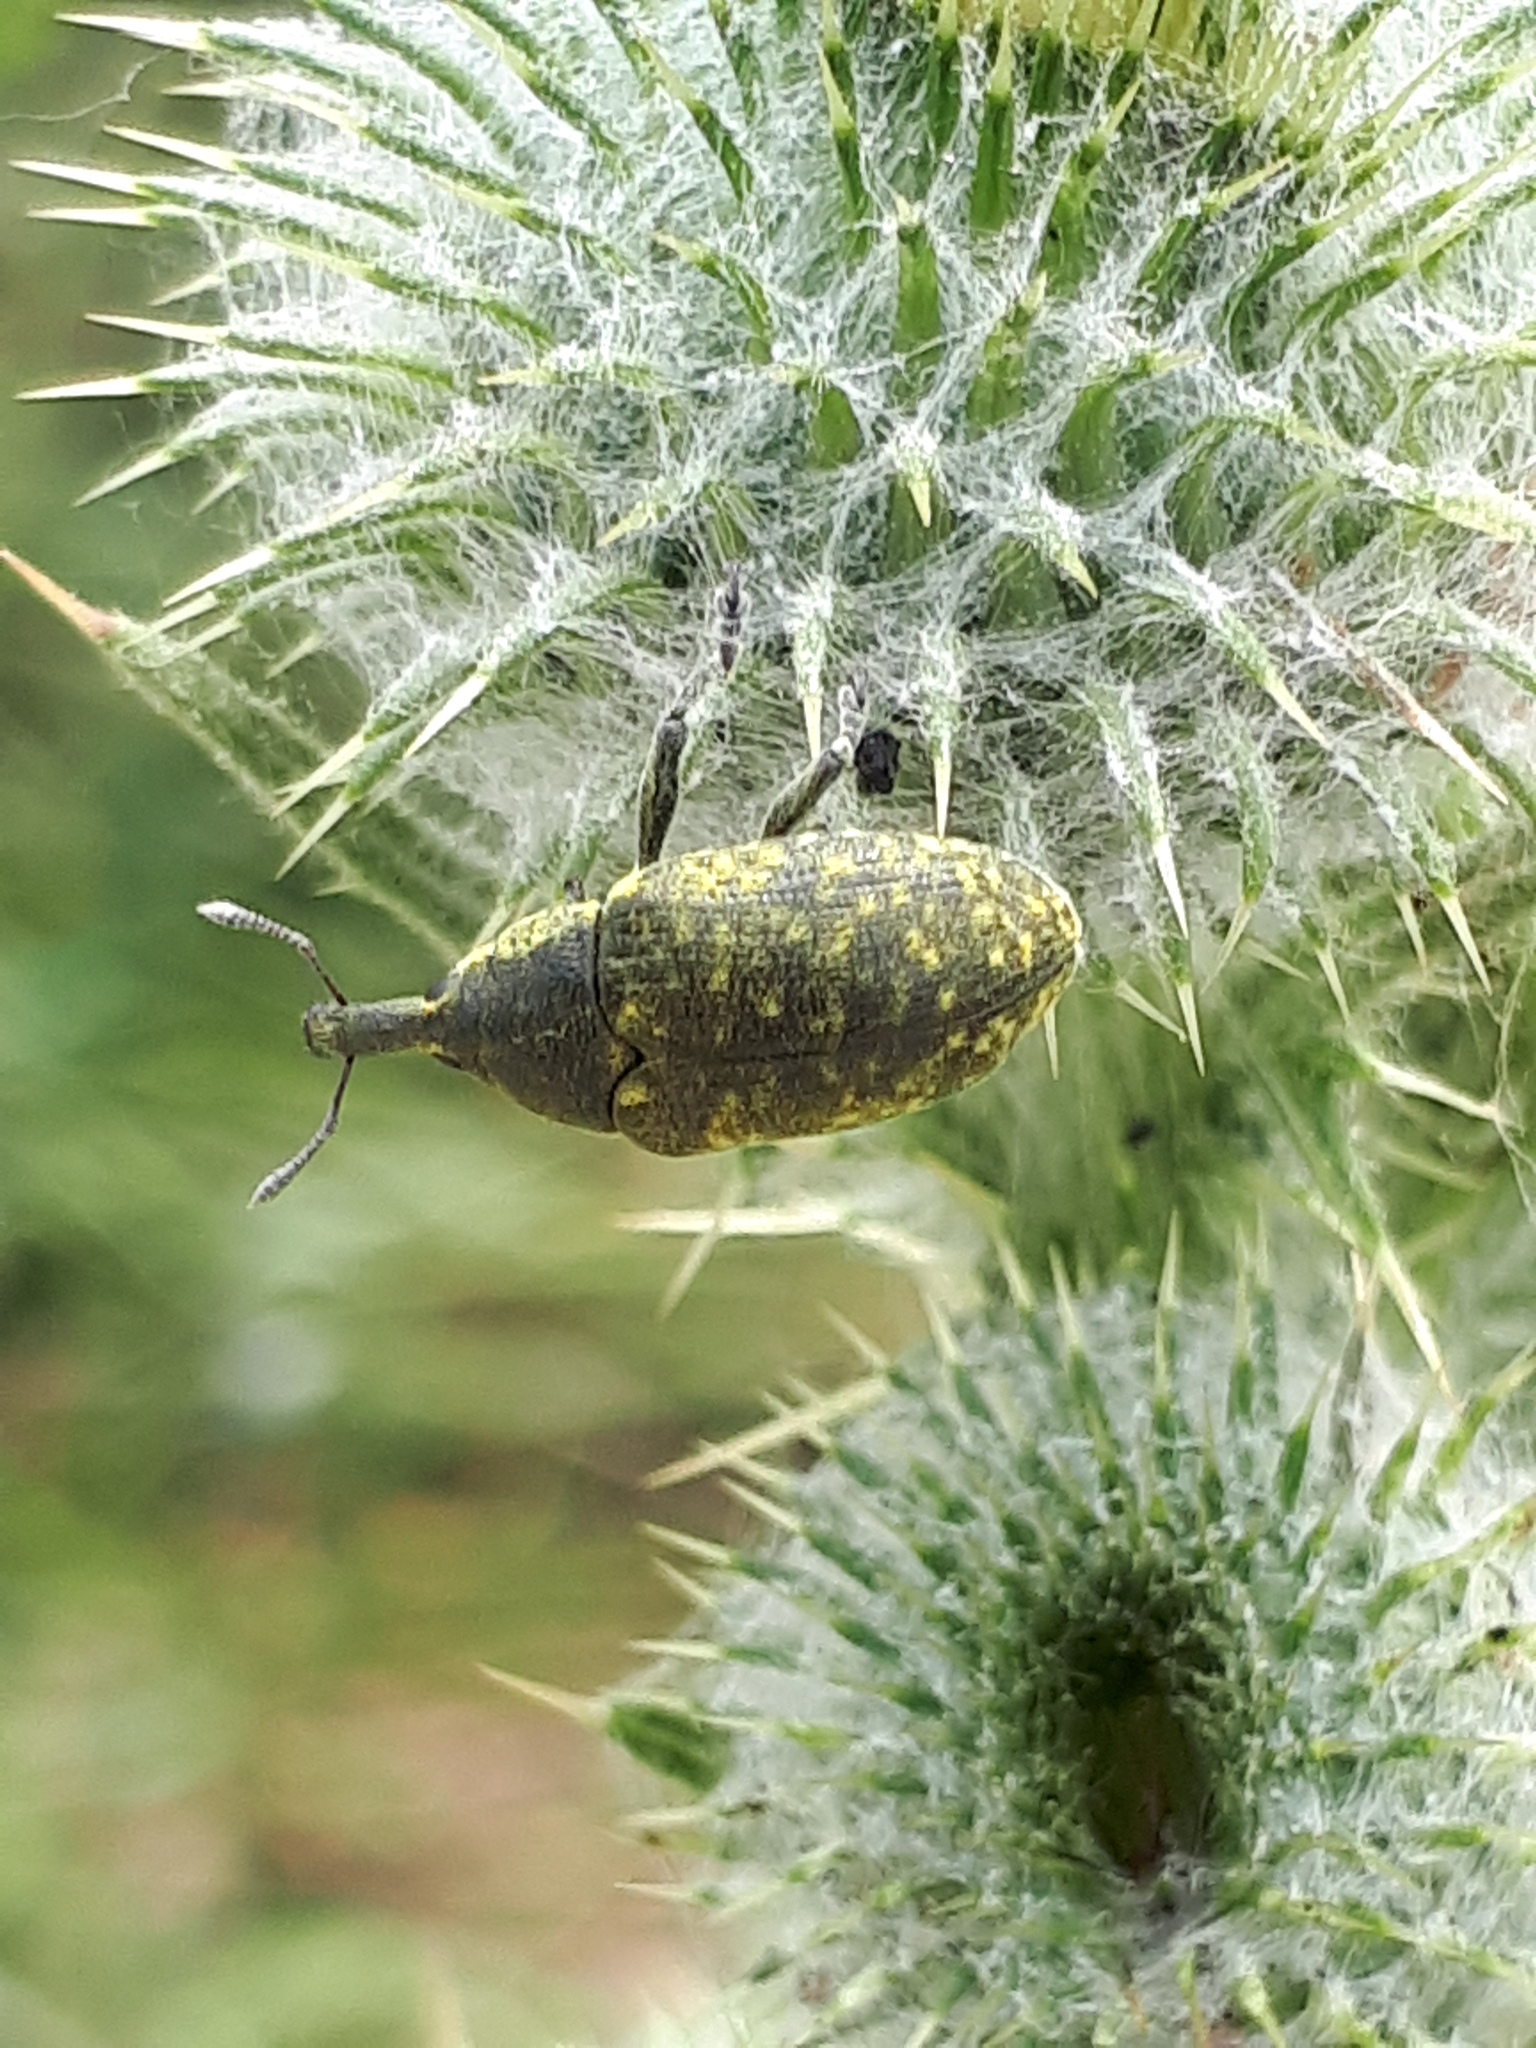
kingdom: Animalia
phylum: Arthropoda
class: Insecta
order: Coleoptera
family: Curculionidae
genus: Larinus
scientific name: Larinus sturnus
